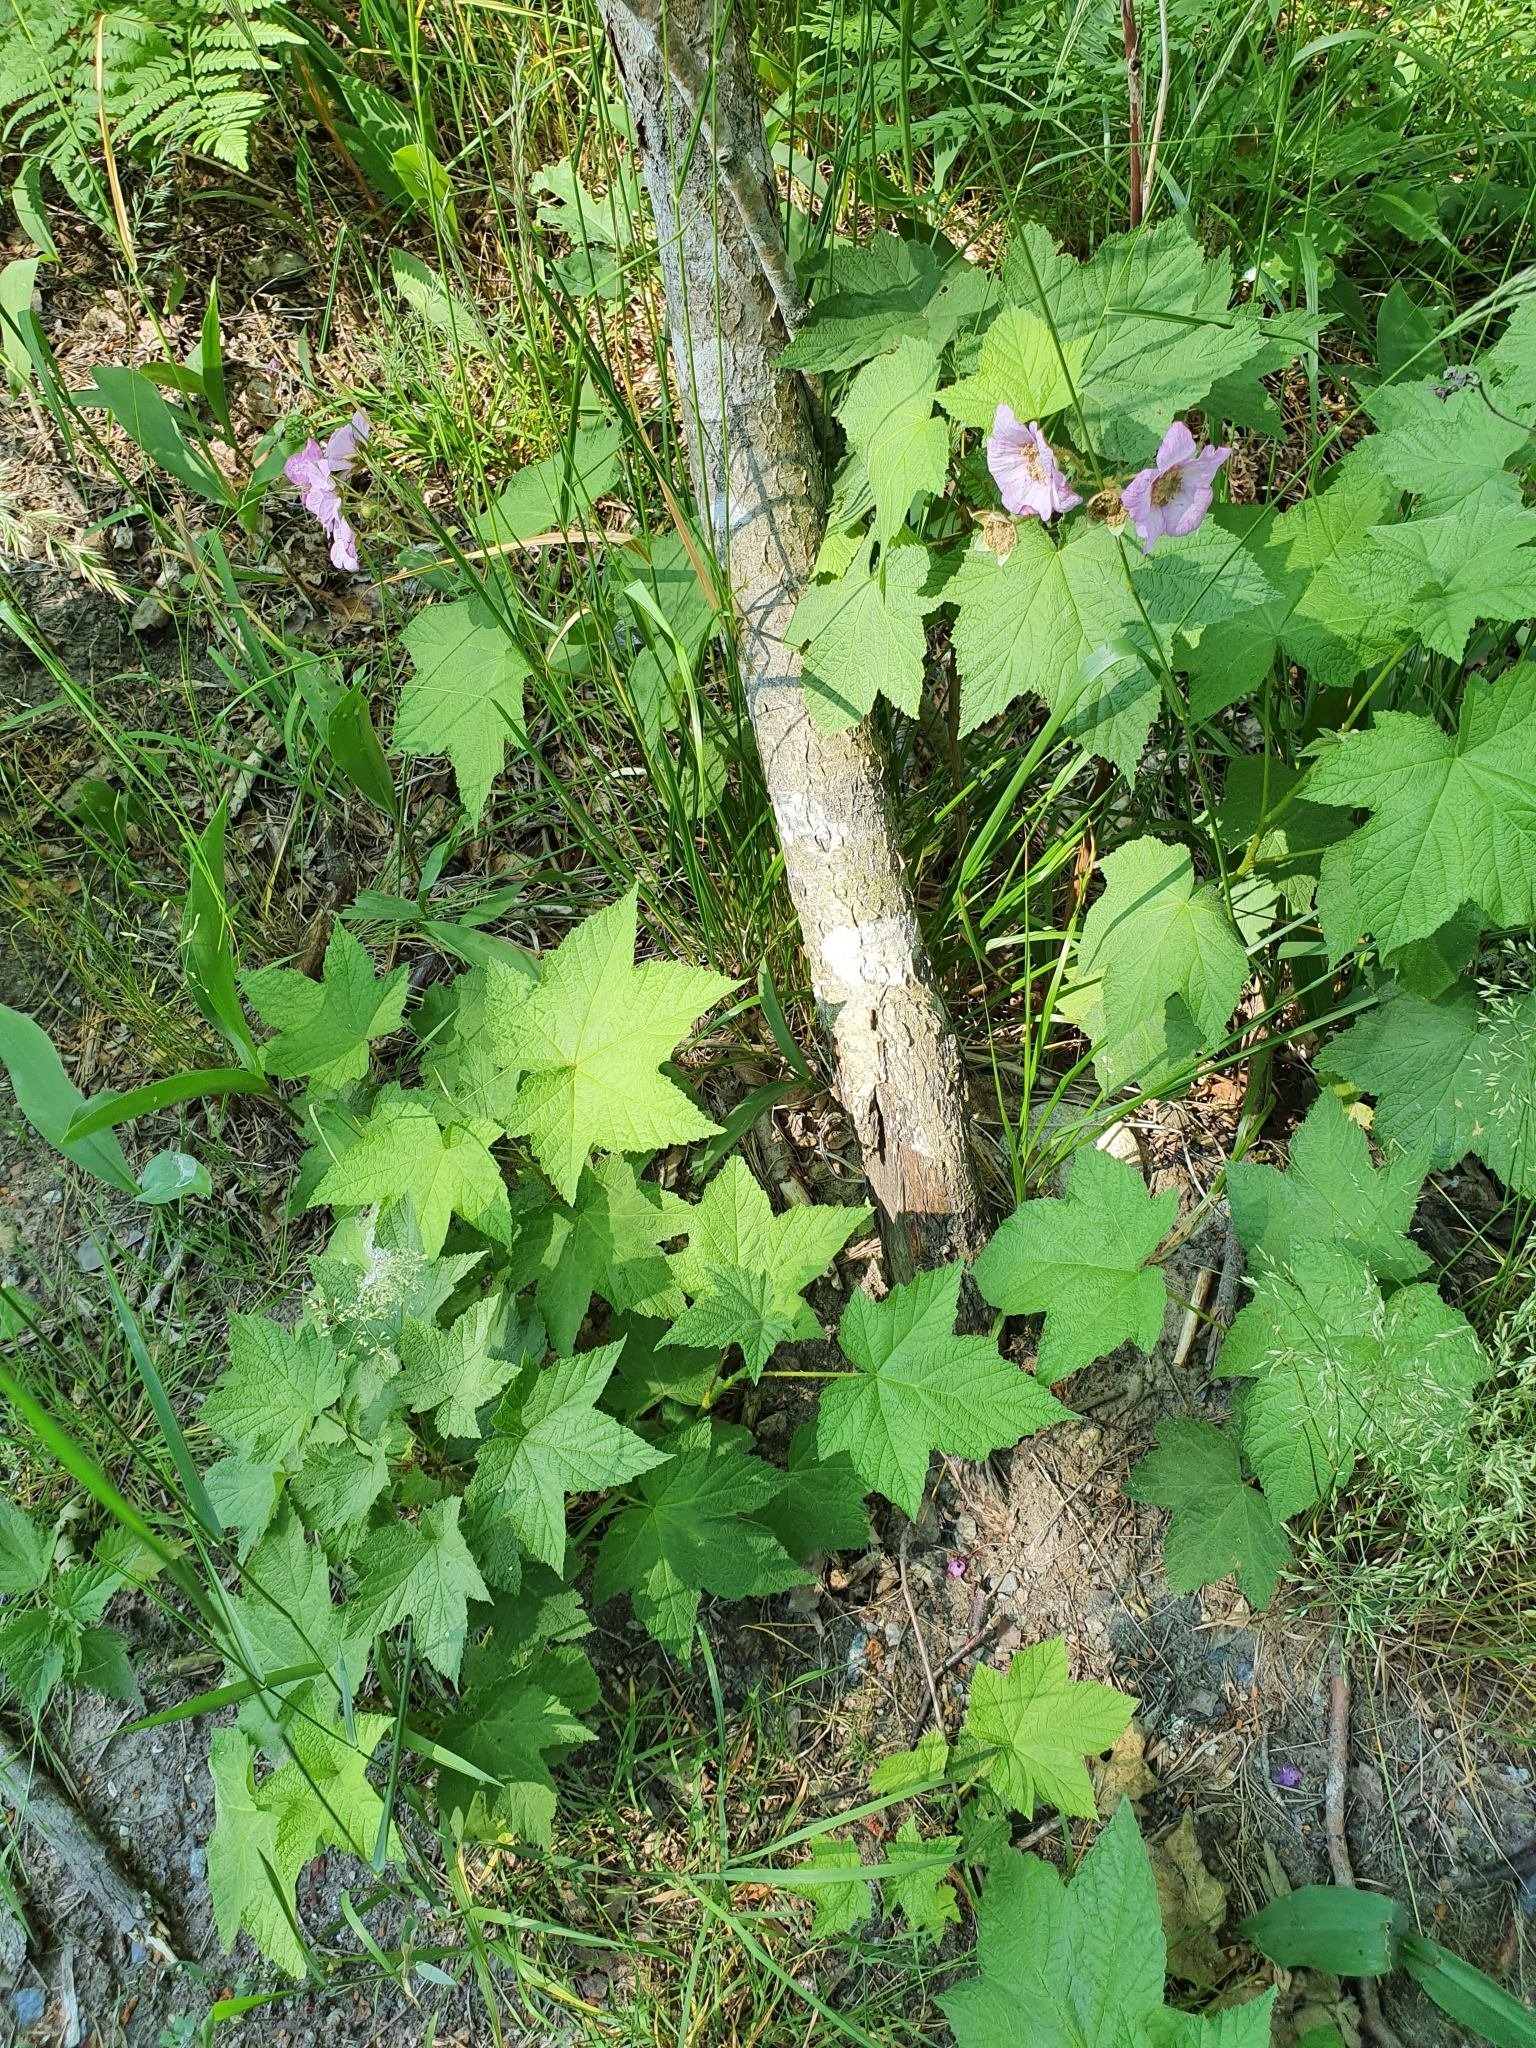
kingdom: Plantae
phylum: Tracheophyta
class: Magnoliopsida
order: Rosales
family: Rosaceae
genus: Rubus
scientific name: Rubus odoratus
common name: Purple-flowered raspberry
